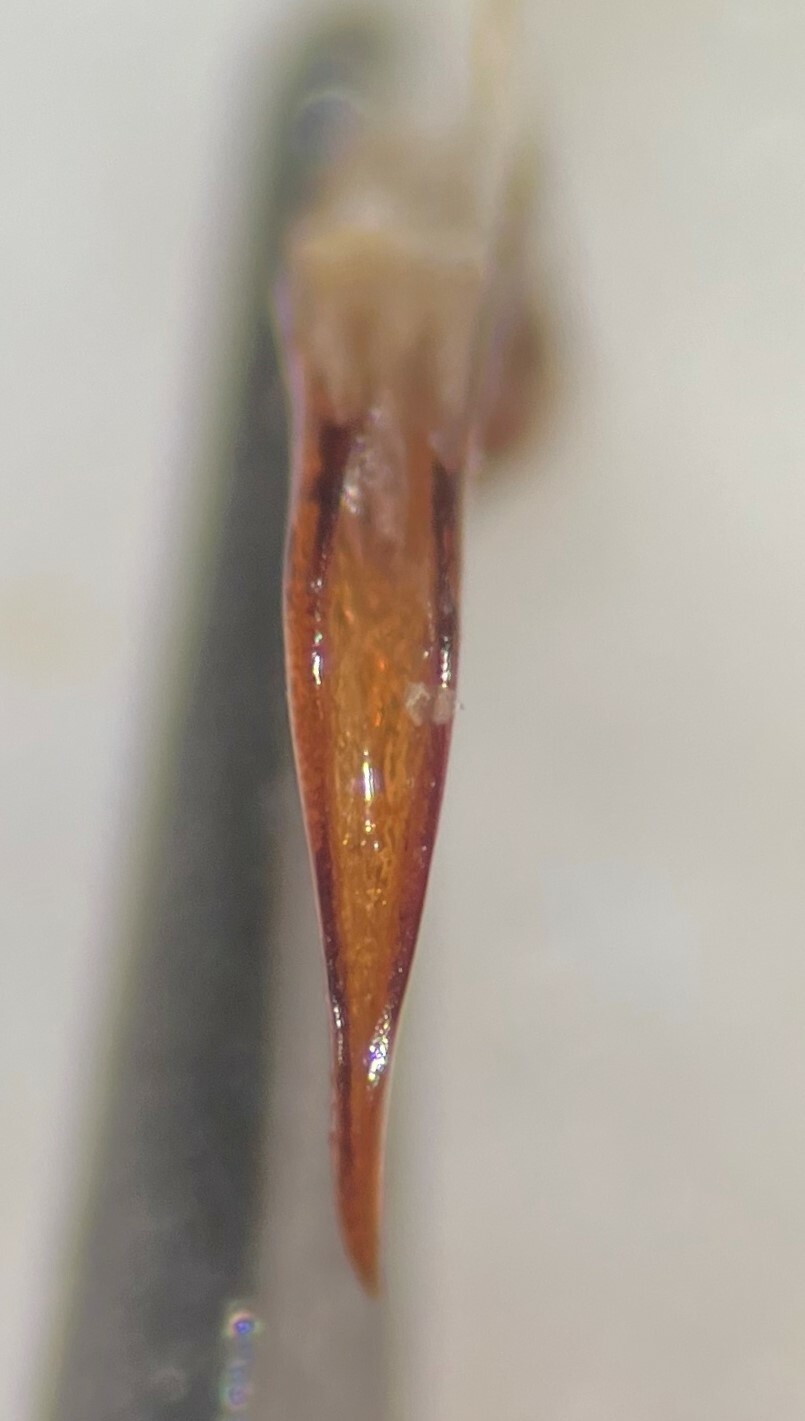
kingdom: Animalia
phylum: Arthropoda
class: Insecta
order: Coleoptera
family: Dytiscidae
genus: Ilybiosoma
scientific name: Ilybiosoma seriatum
